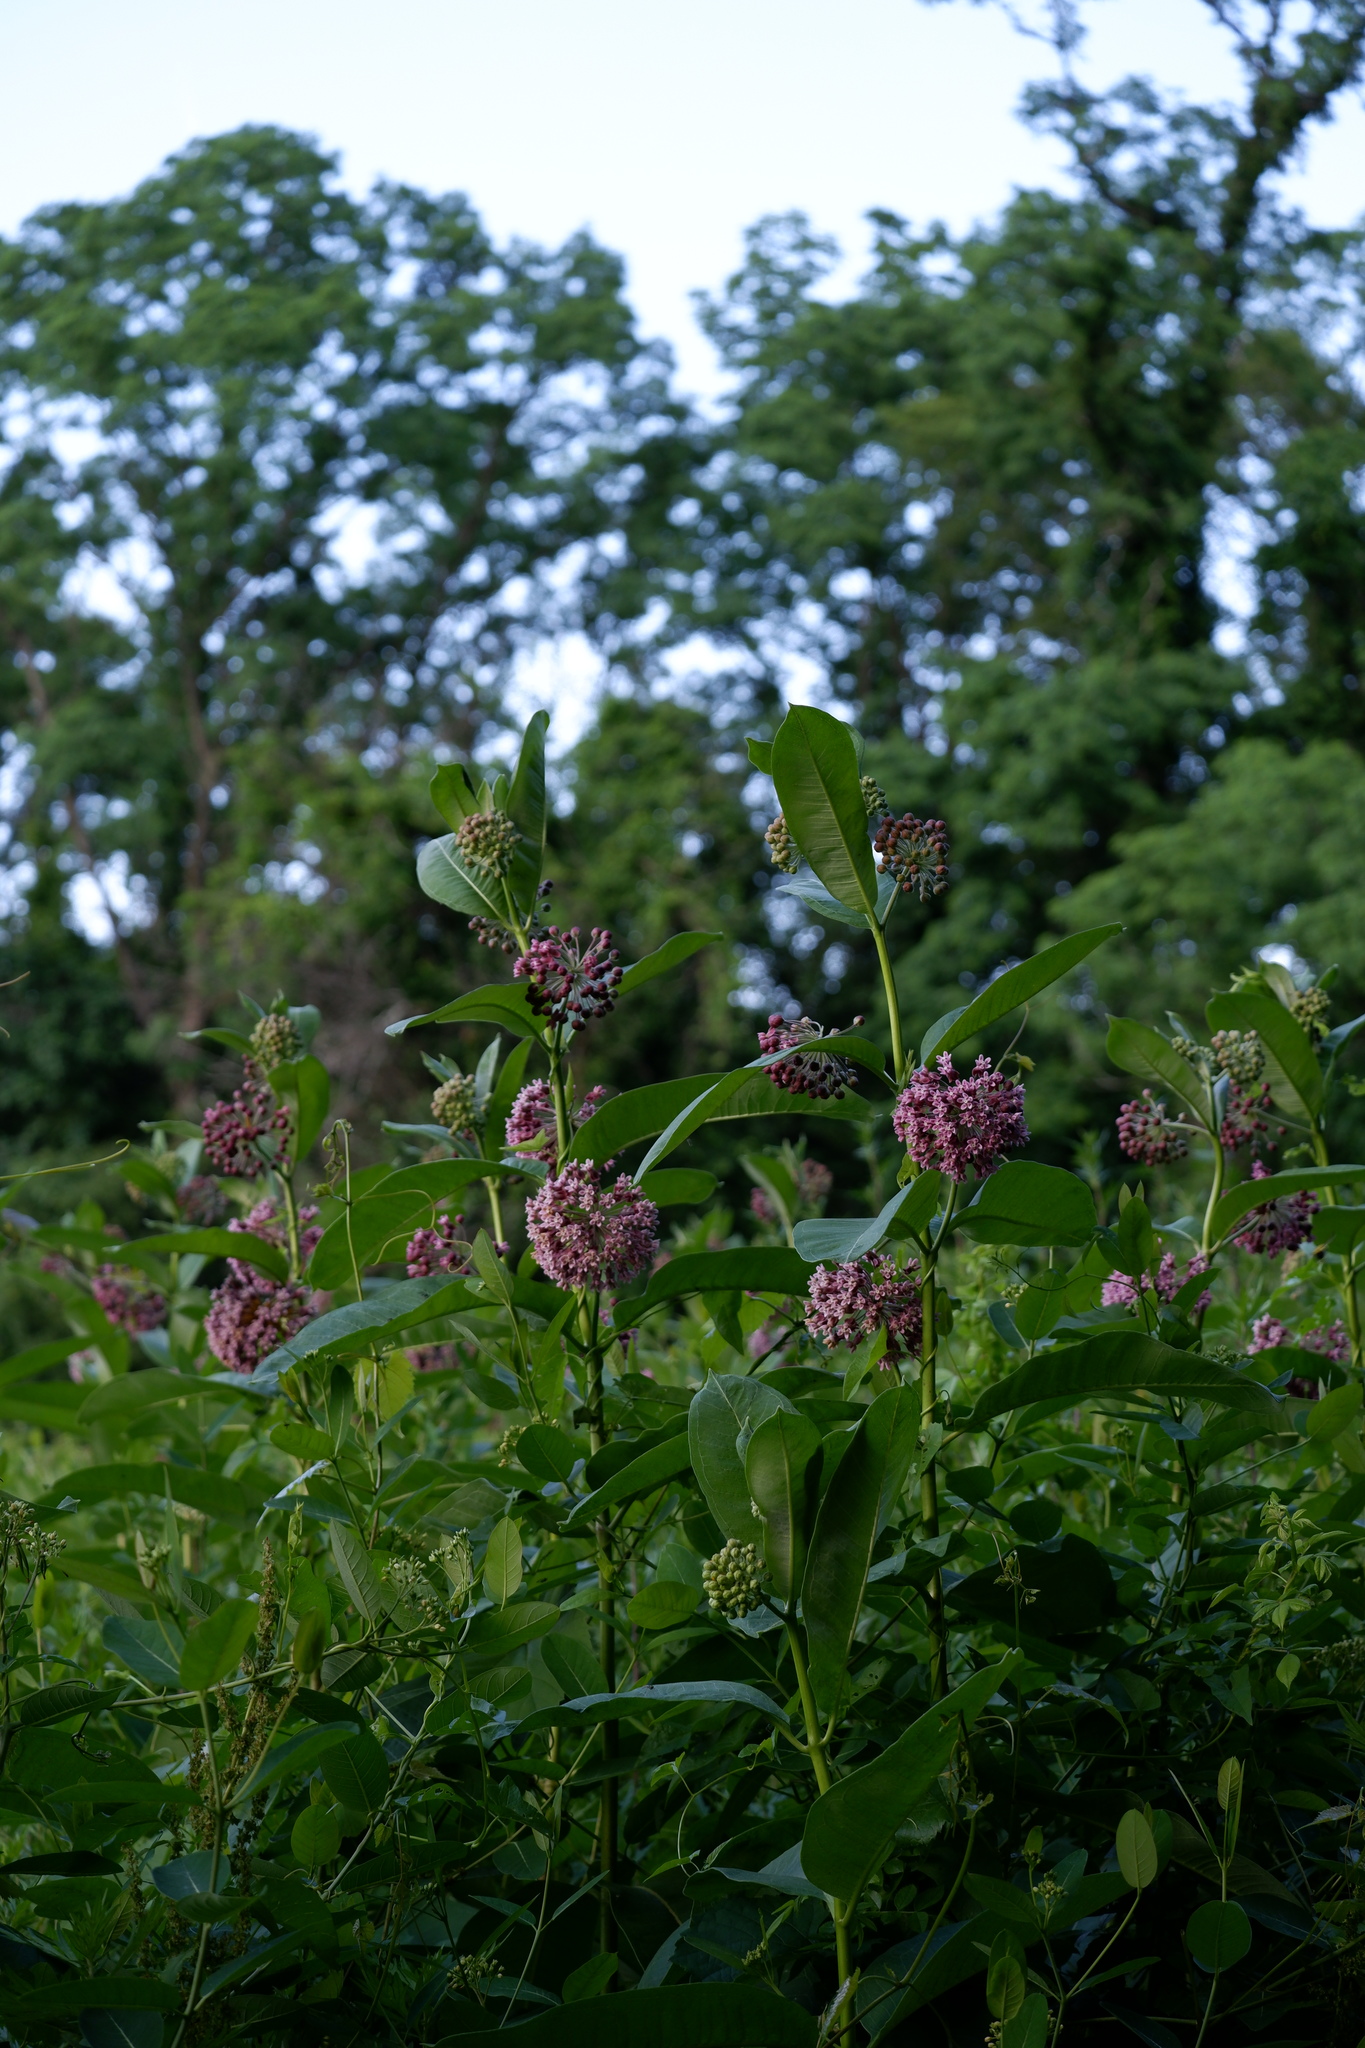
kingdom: Plantae
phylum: Tracheophyta
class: Magnoliopsida
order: Gentianales
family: Apocynaceae
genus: Asclepias
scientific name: Asclepias syriaca
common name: Common milkweed
